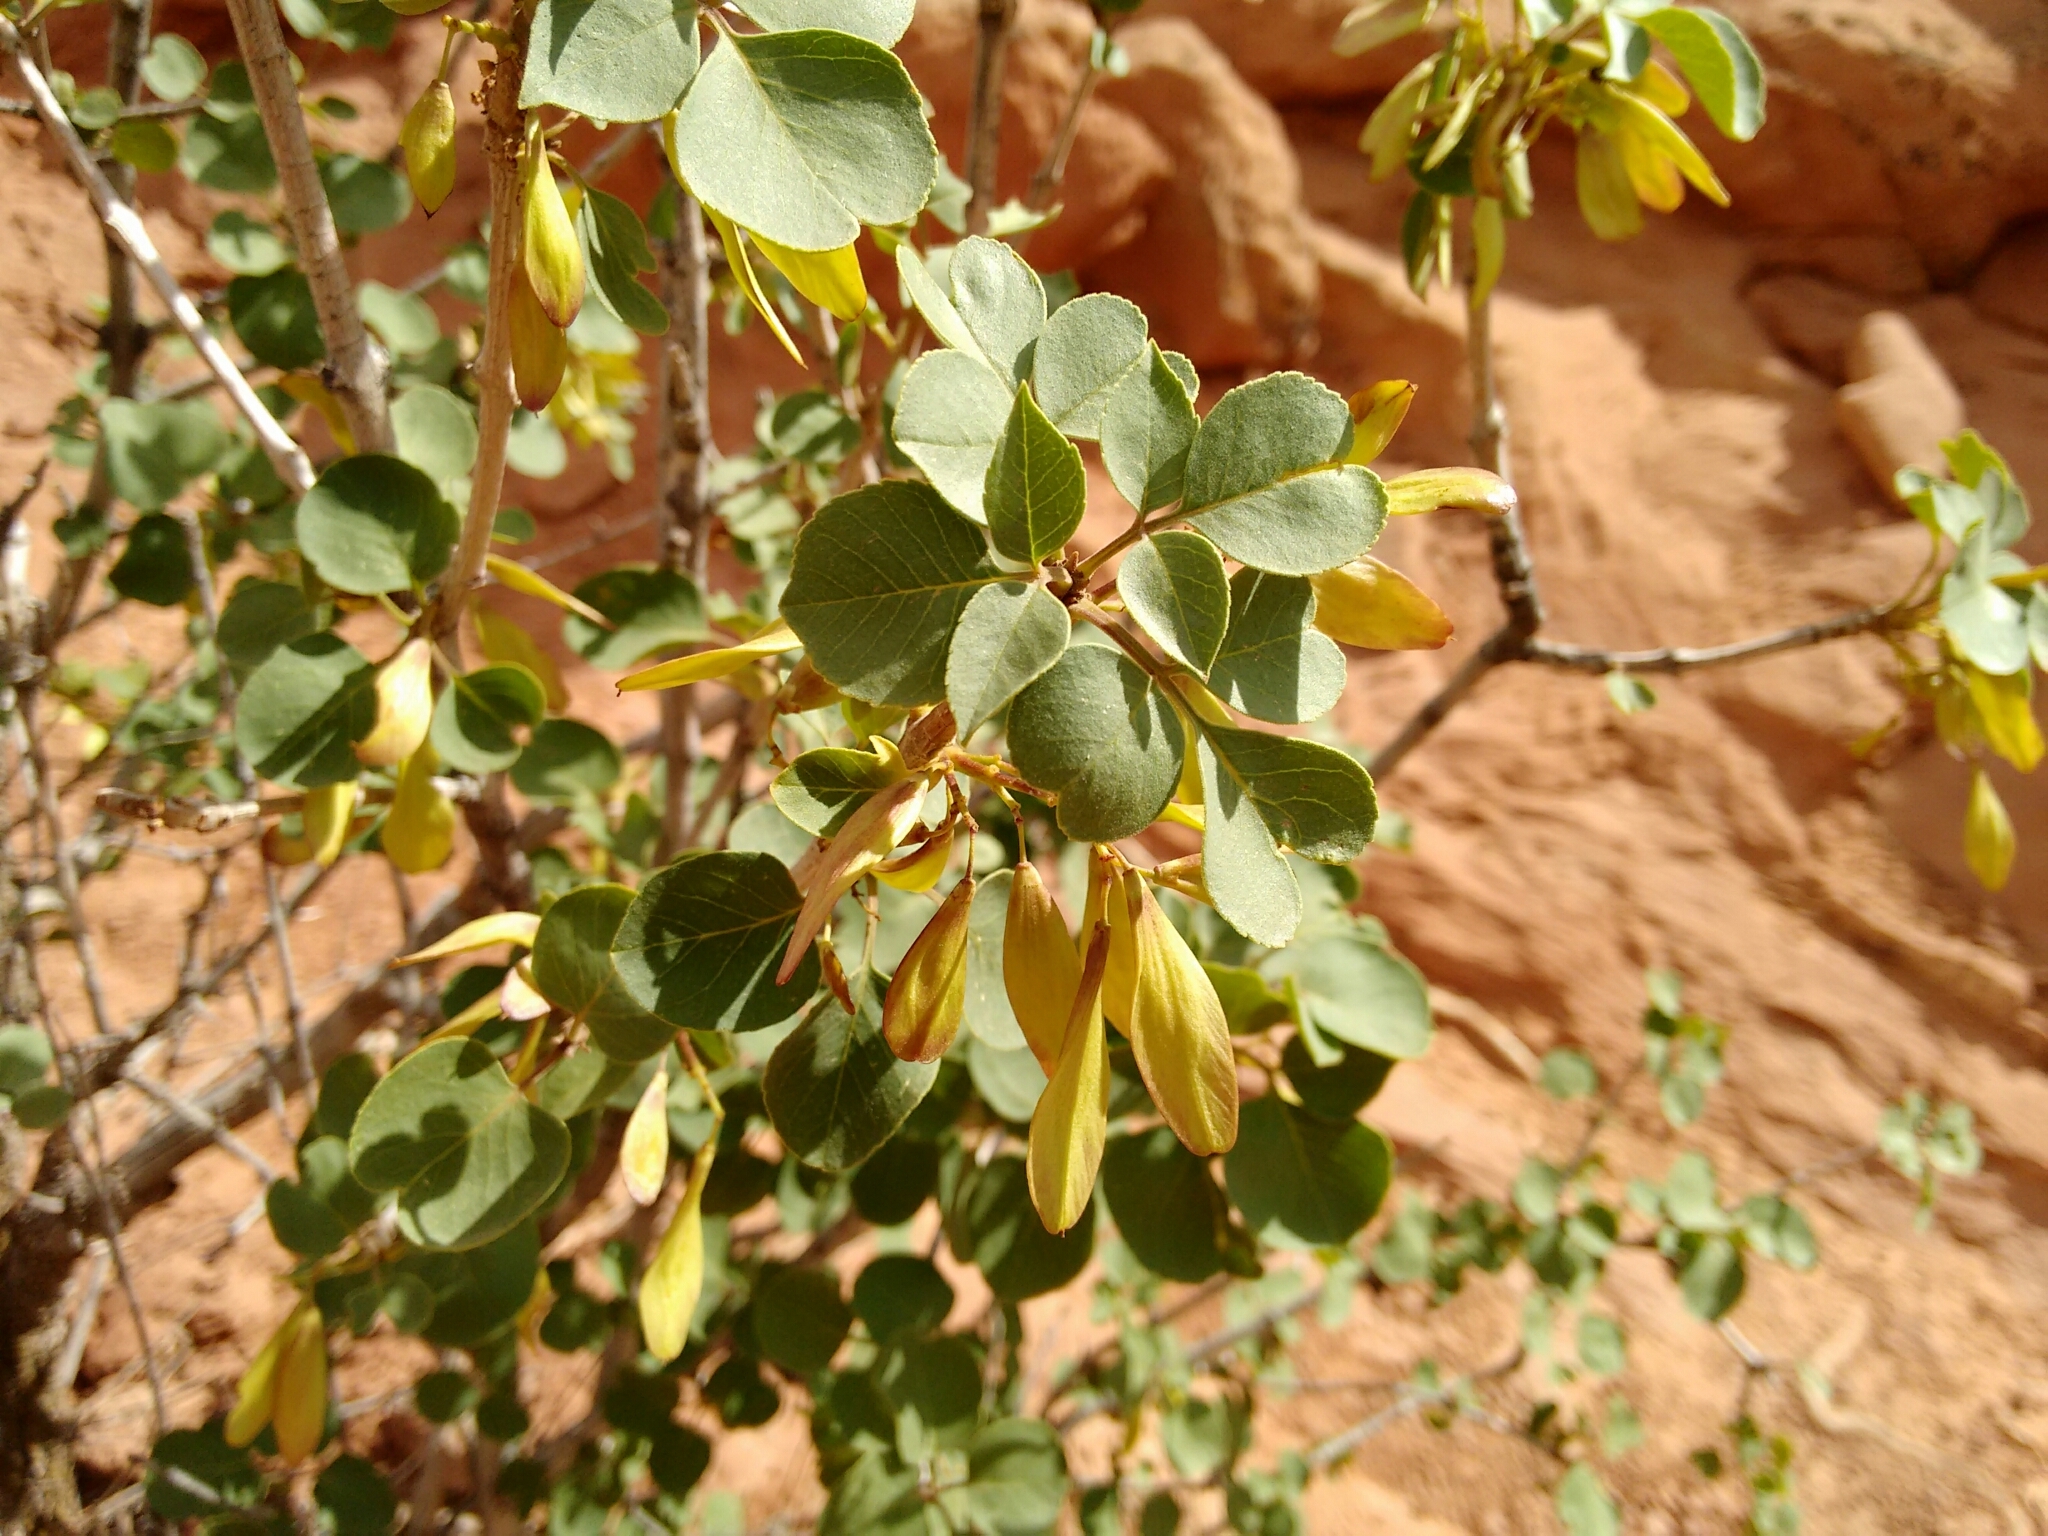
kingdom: Plantae
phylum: Tracheophyta
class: Magnoliopsida
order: Lamiales
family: Oleaceae
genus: Fraxinus
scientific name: Fraxinus anomala
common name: Utah ash
